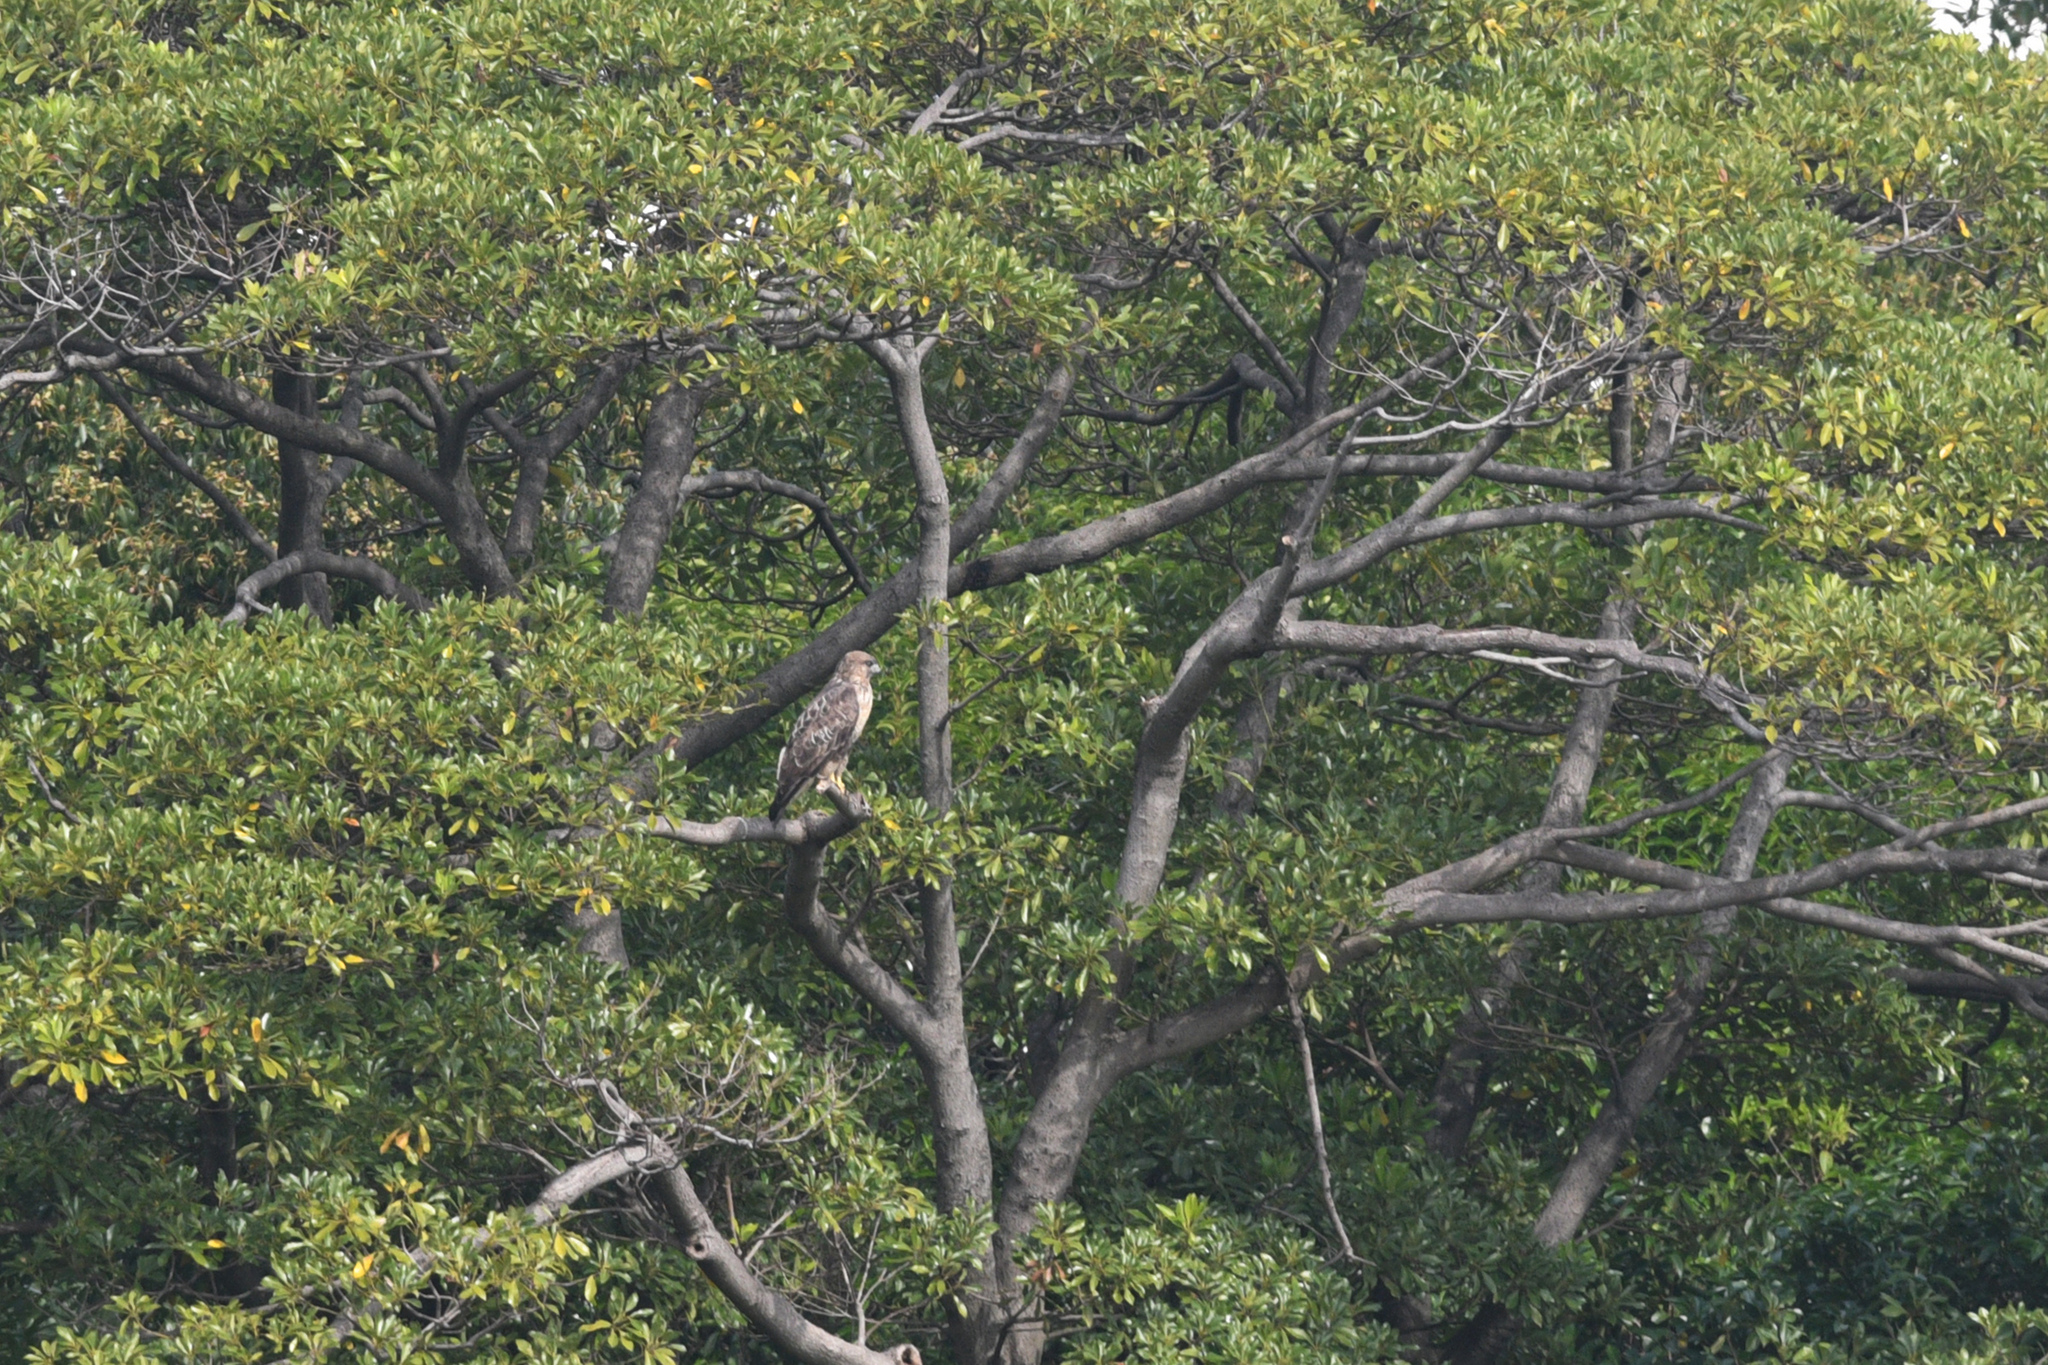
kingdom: Animalia
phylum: Chordata
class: Aves
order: Accipitriformes
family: Accipitridae
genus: Buteo
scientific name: Buteo japonicus
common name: Eastern buzzard
